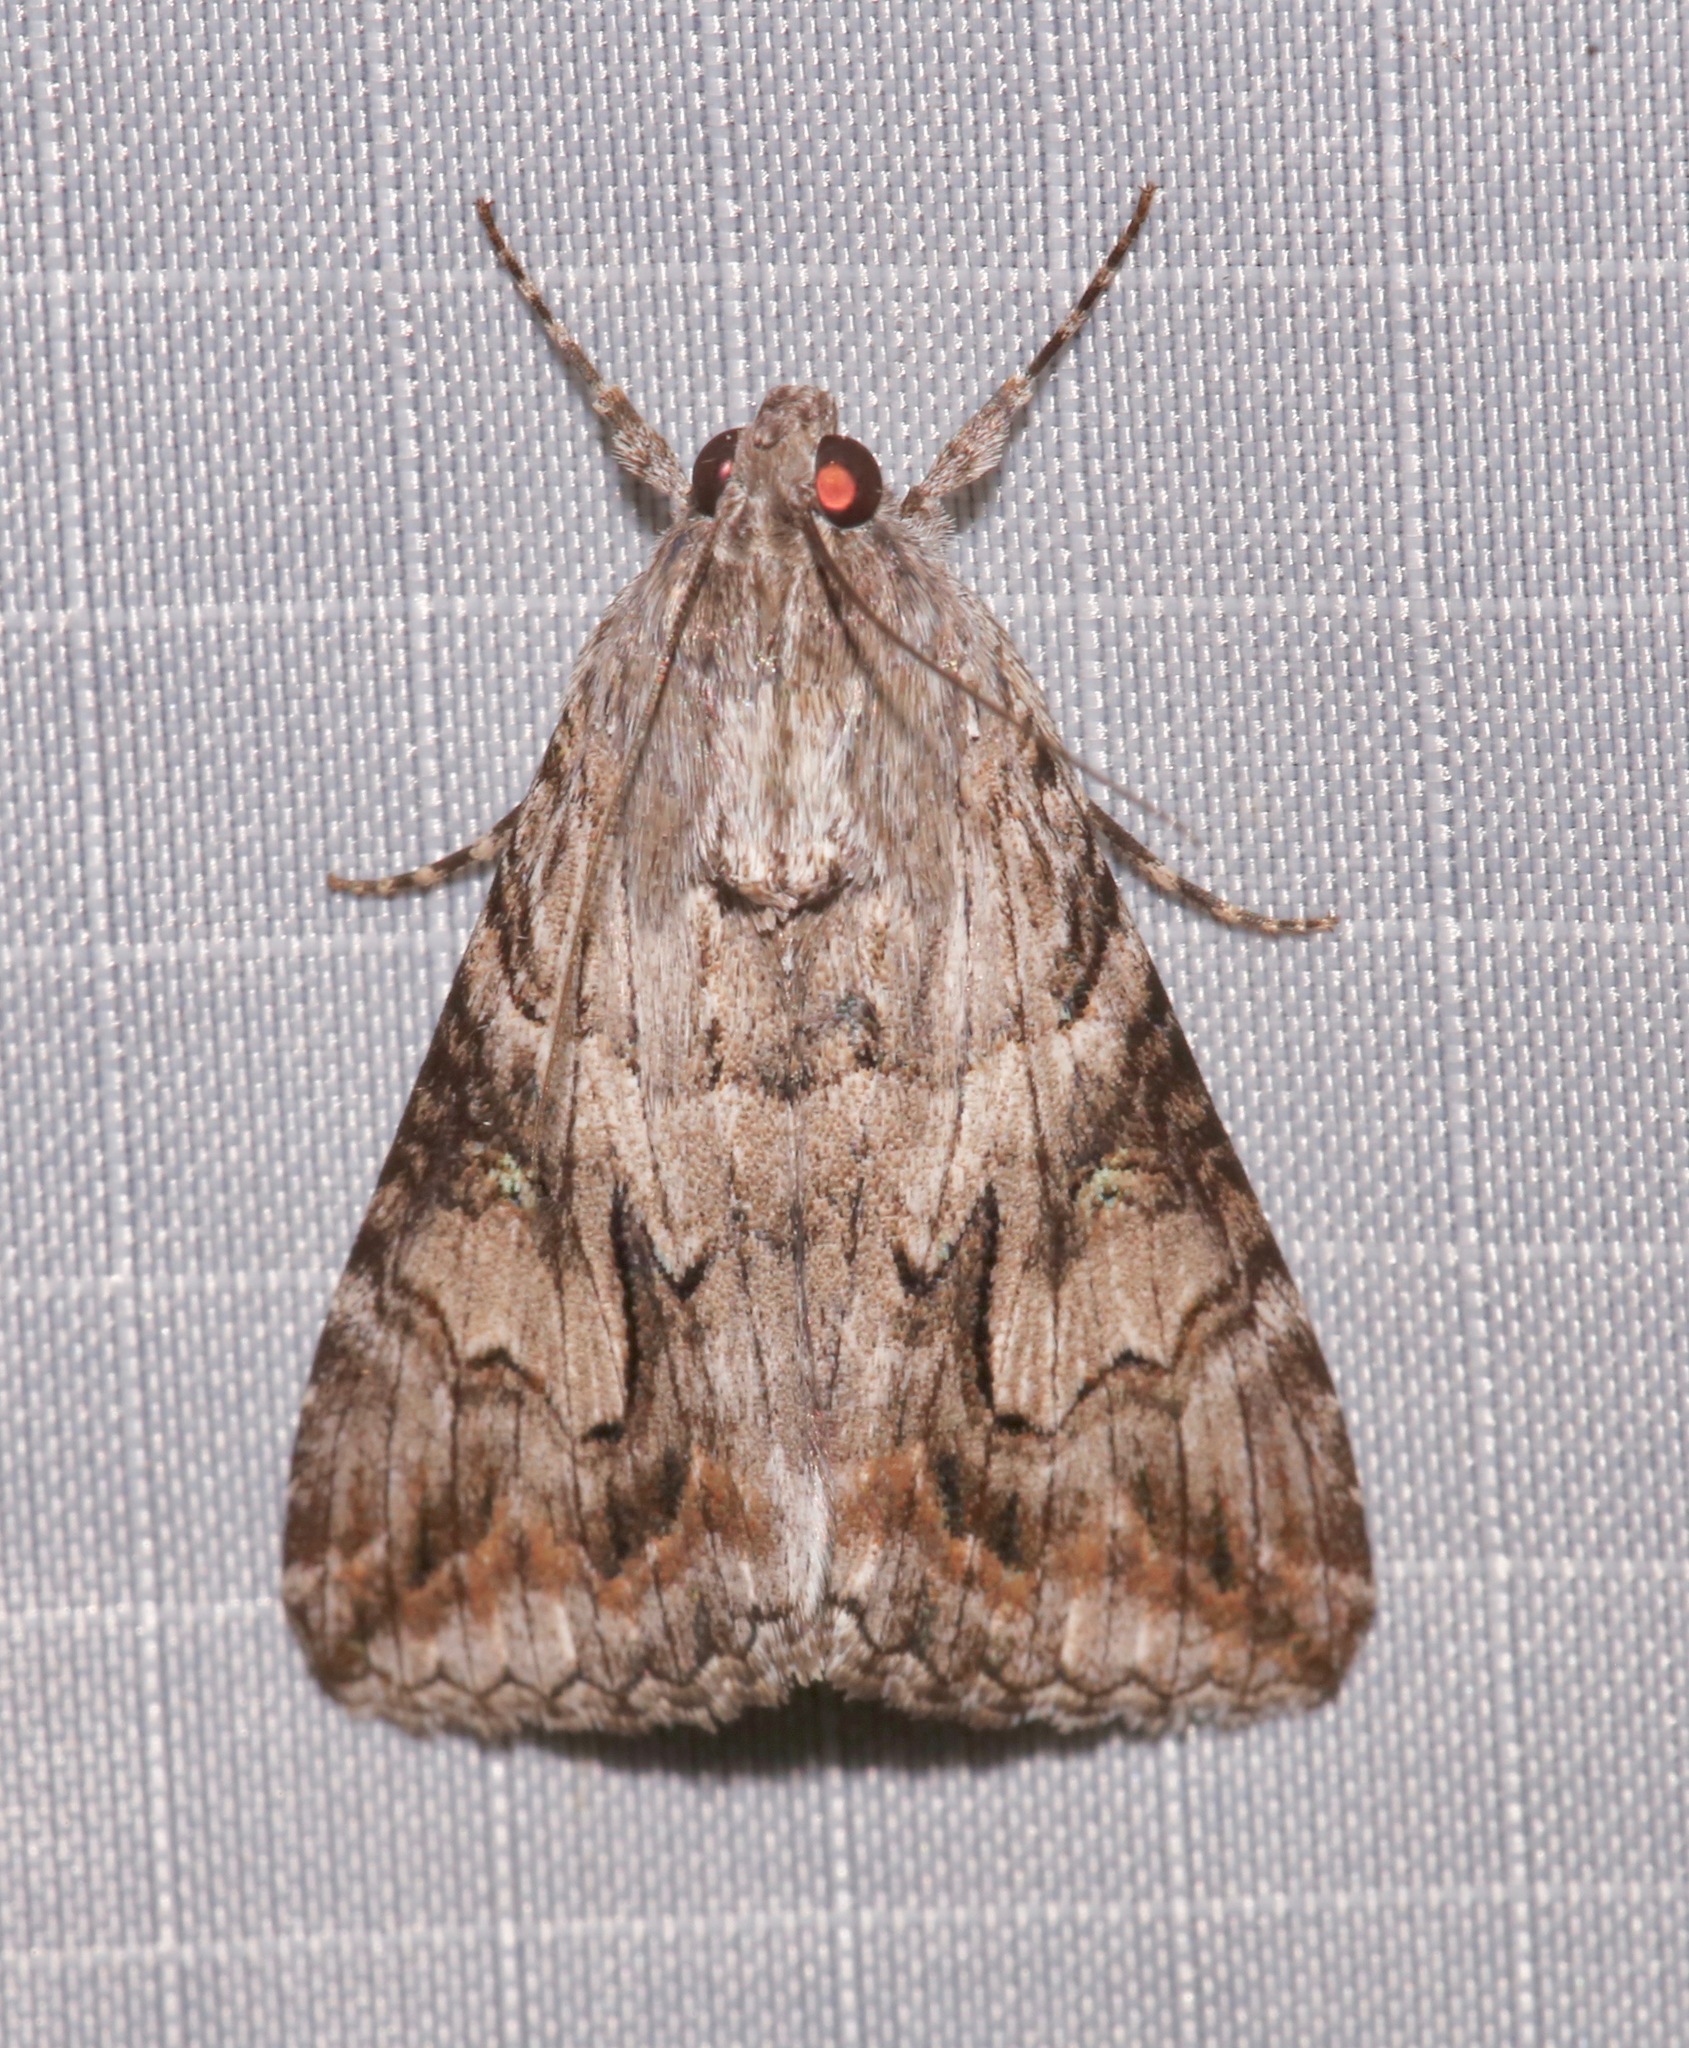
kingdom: Animalia
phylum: Arthropoda
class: Insecta
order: Lepidoptera
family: Erebidae
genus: Melipotis
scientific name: Melipotis jucunda
